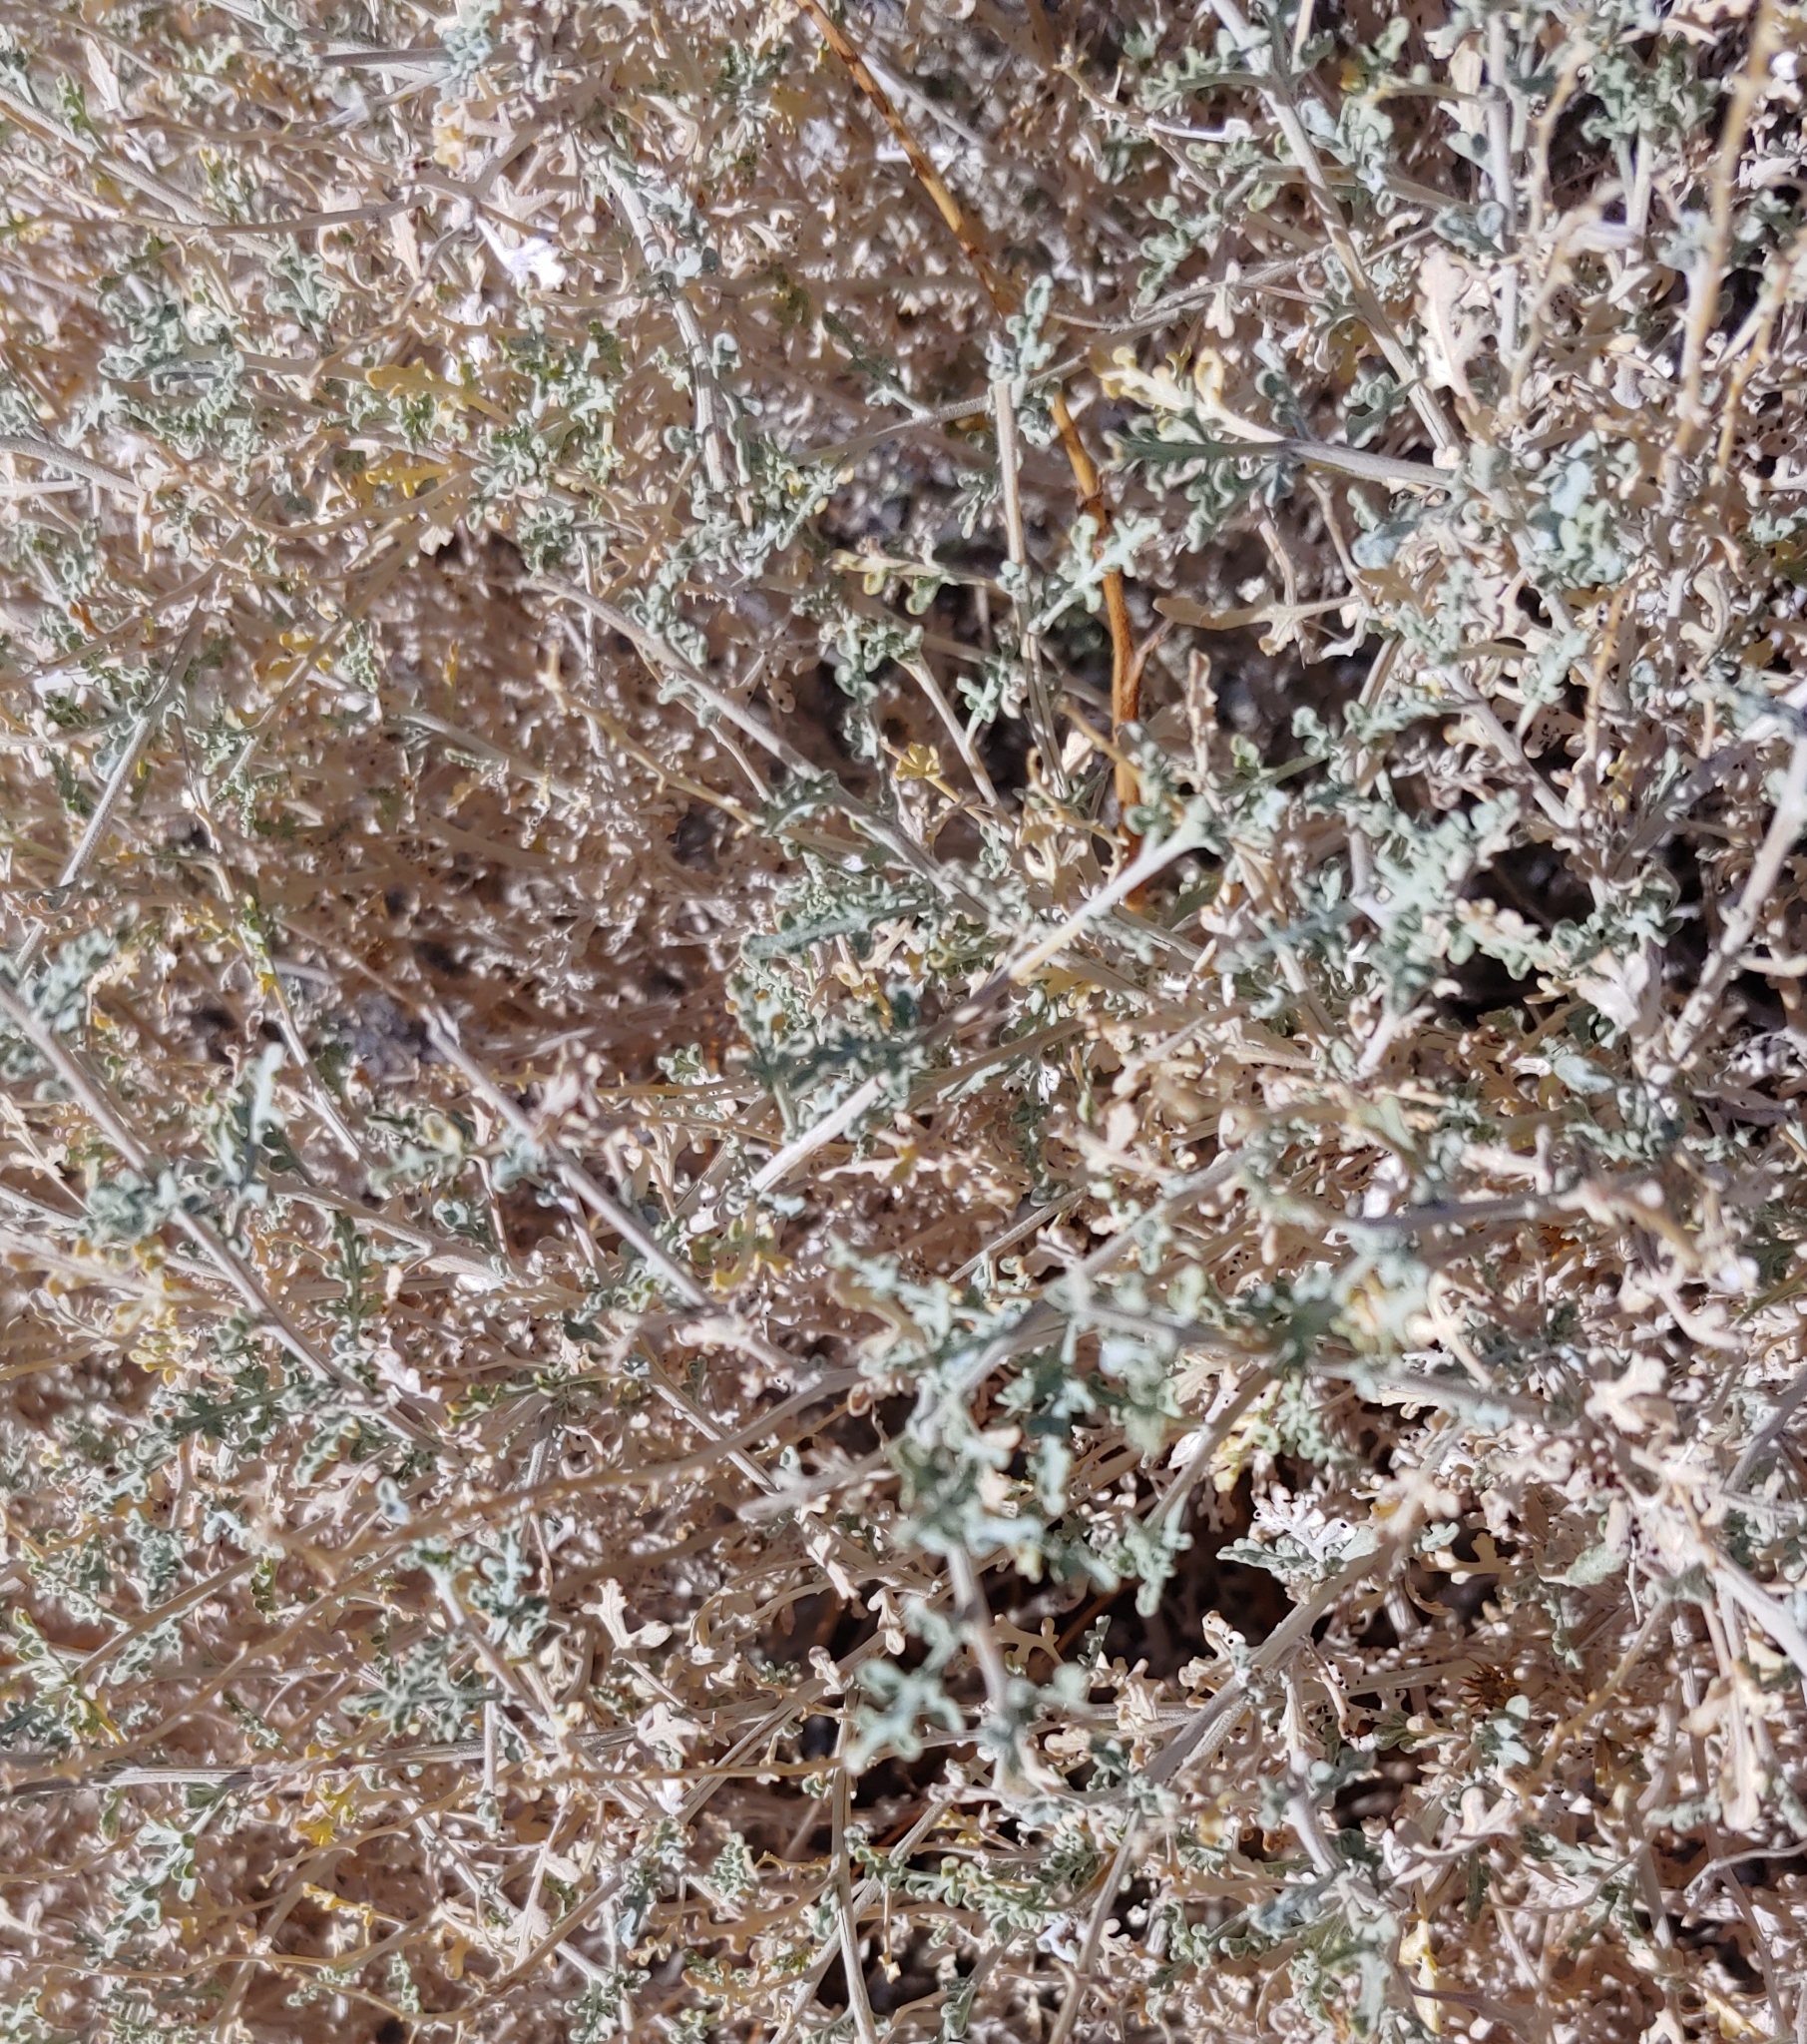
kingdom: Plantae
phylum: Tracheophyta
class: Magnoliopsida
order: Asterales
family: Asteraceae
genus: Ambrosia
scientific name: Ambrosia dumosa
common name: Bur-sage
